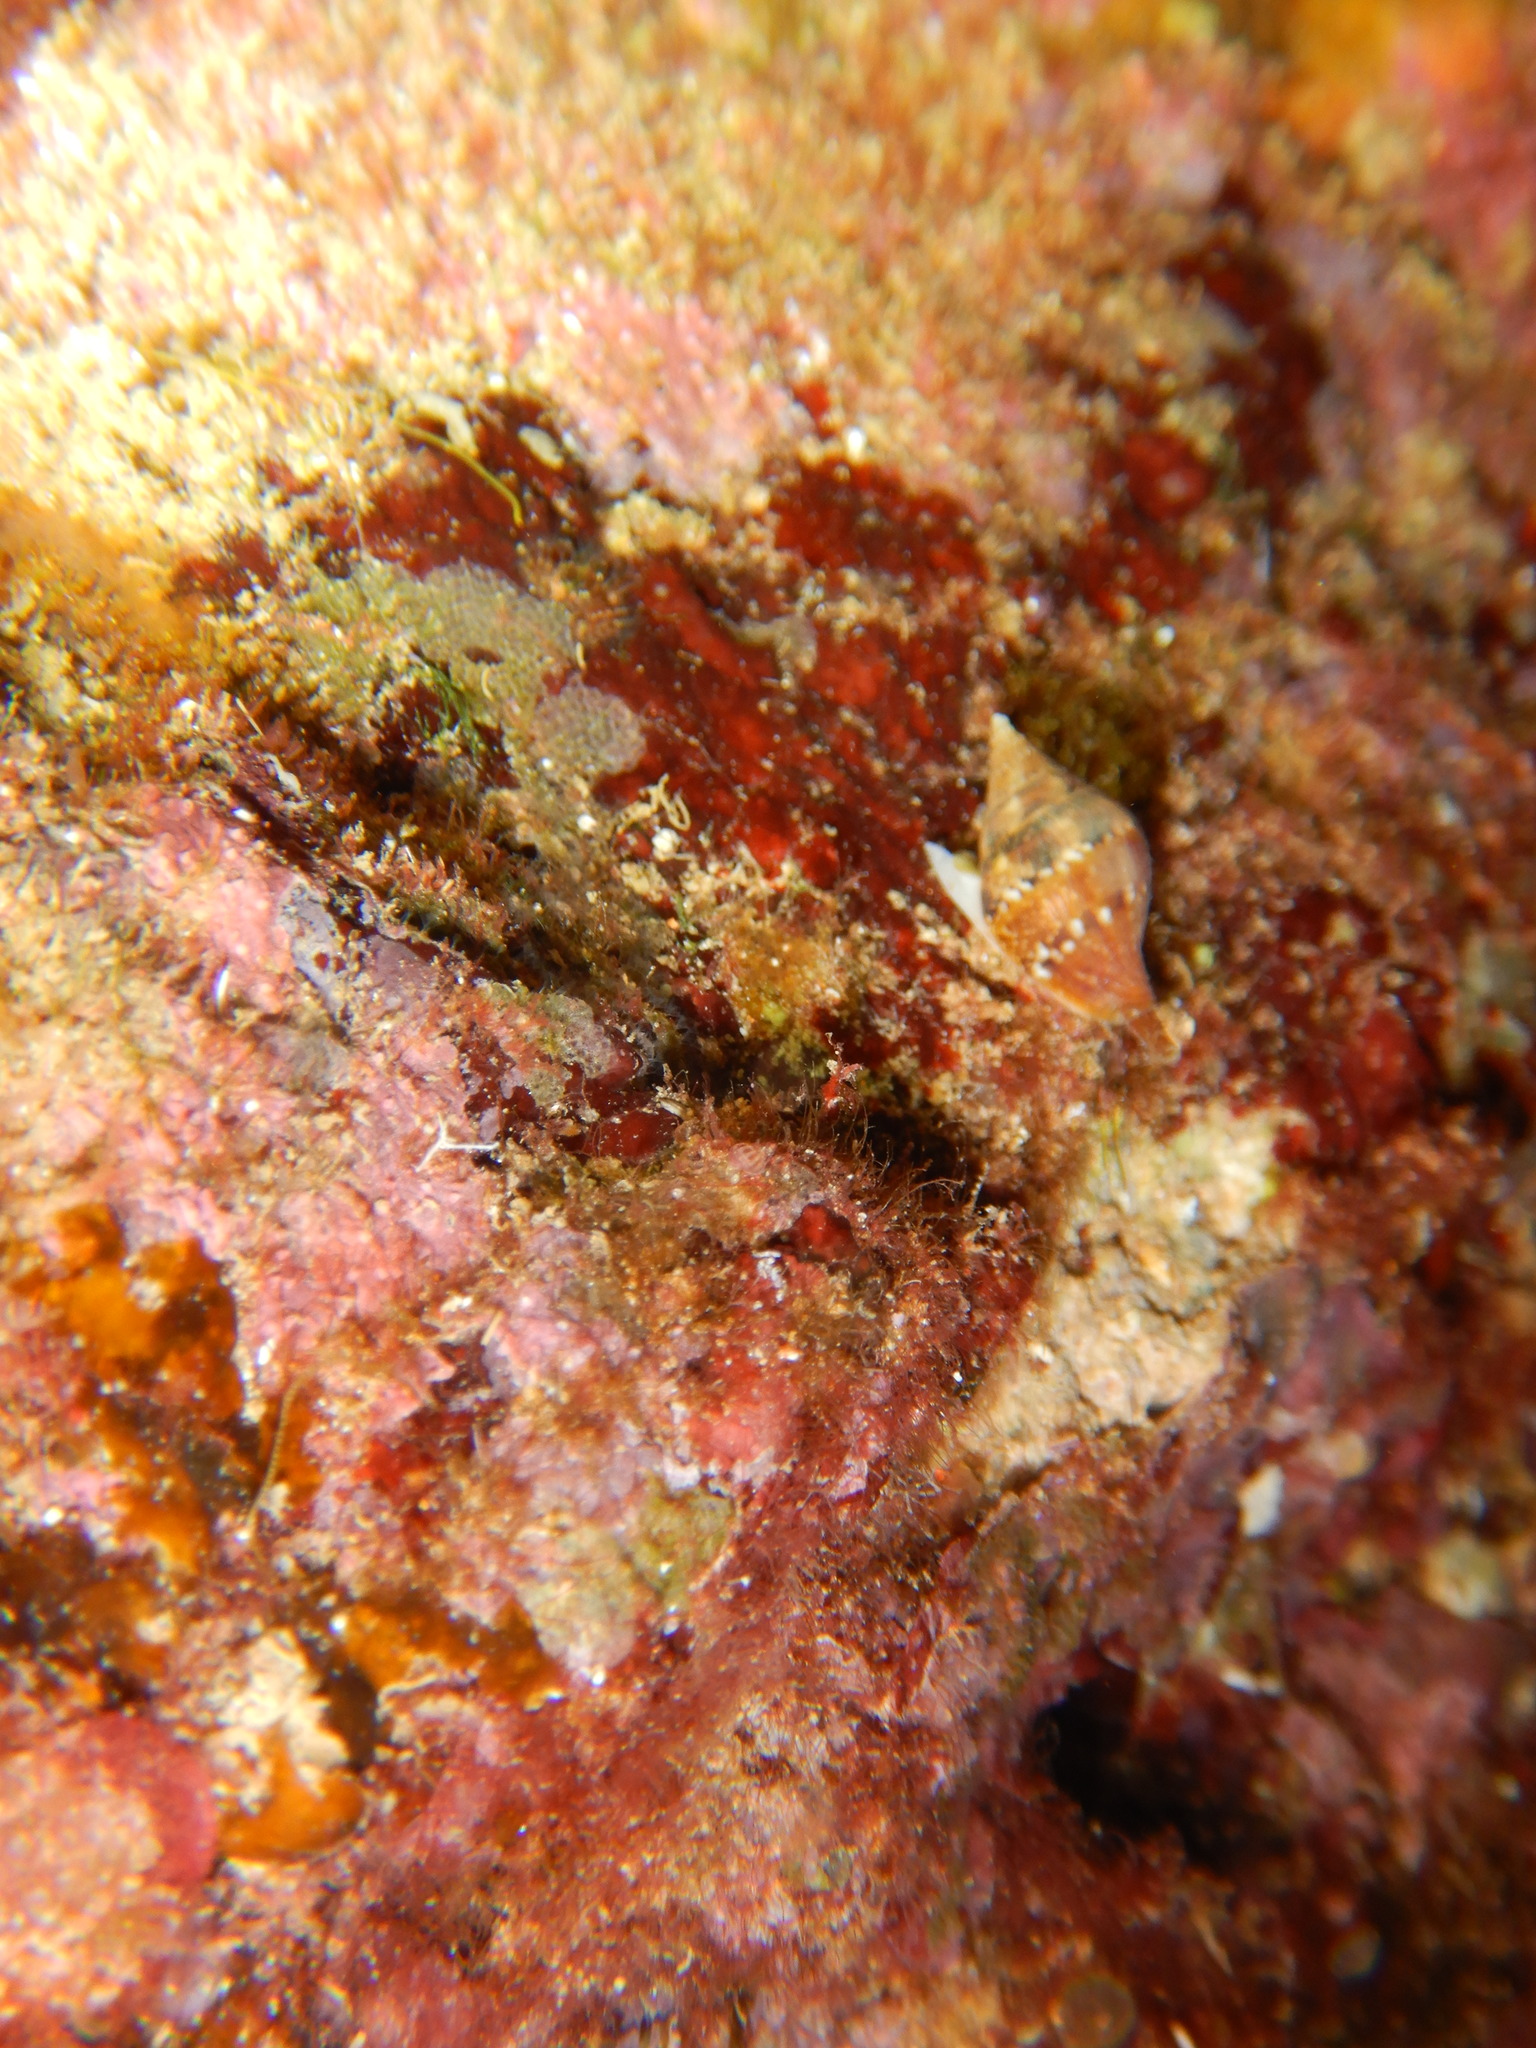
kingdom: Animalia
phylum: Mollusca
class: Gastropoda
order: Neogastropoda
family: Columbellidae
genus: Columbella
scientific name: Columbella rustica
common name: Rustic dove shell
